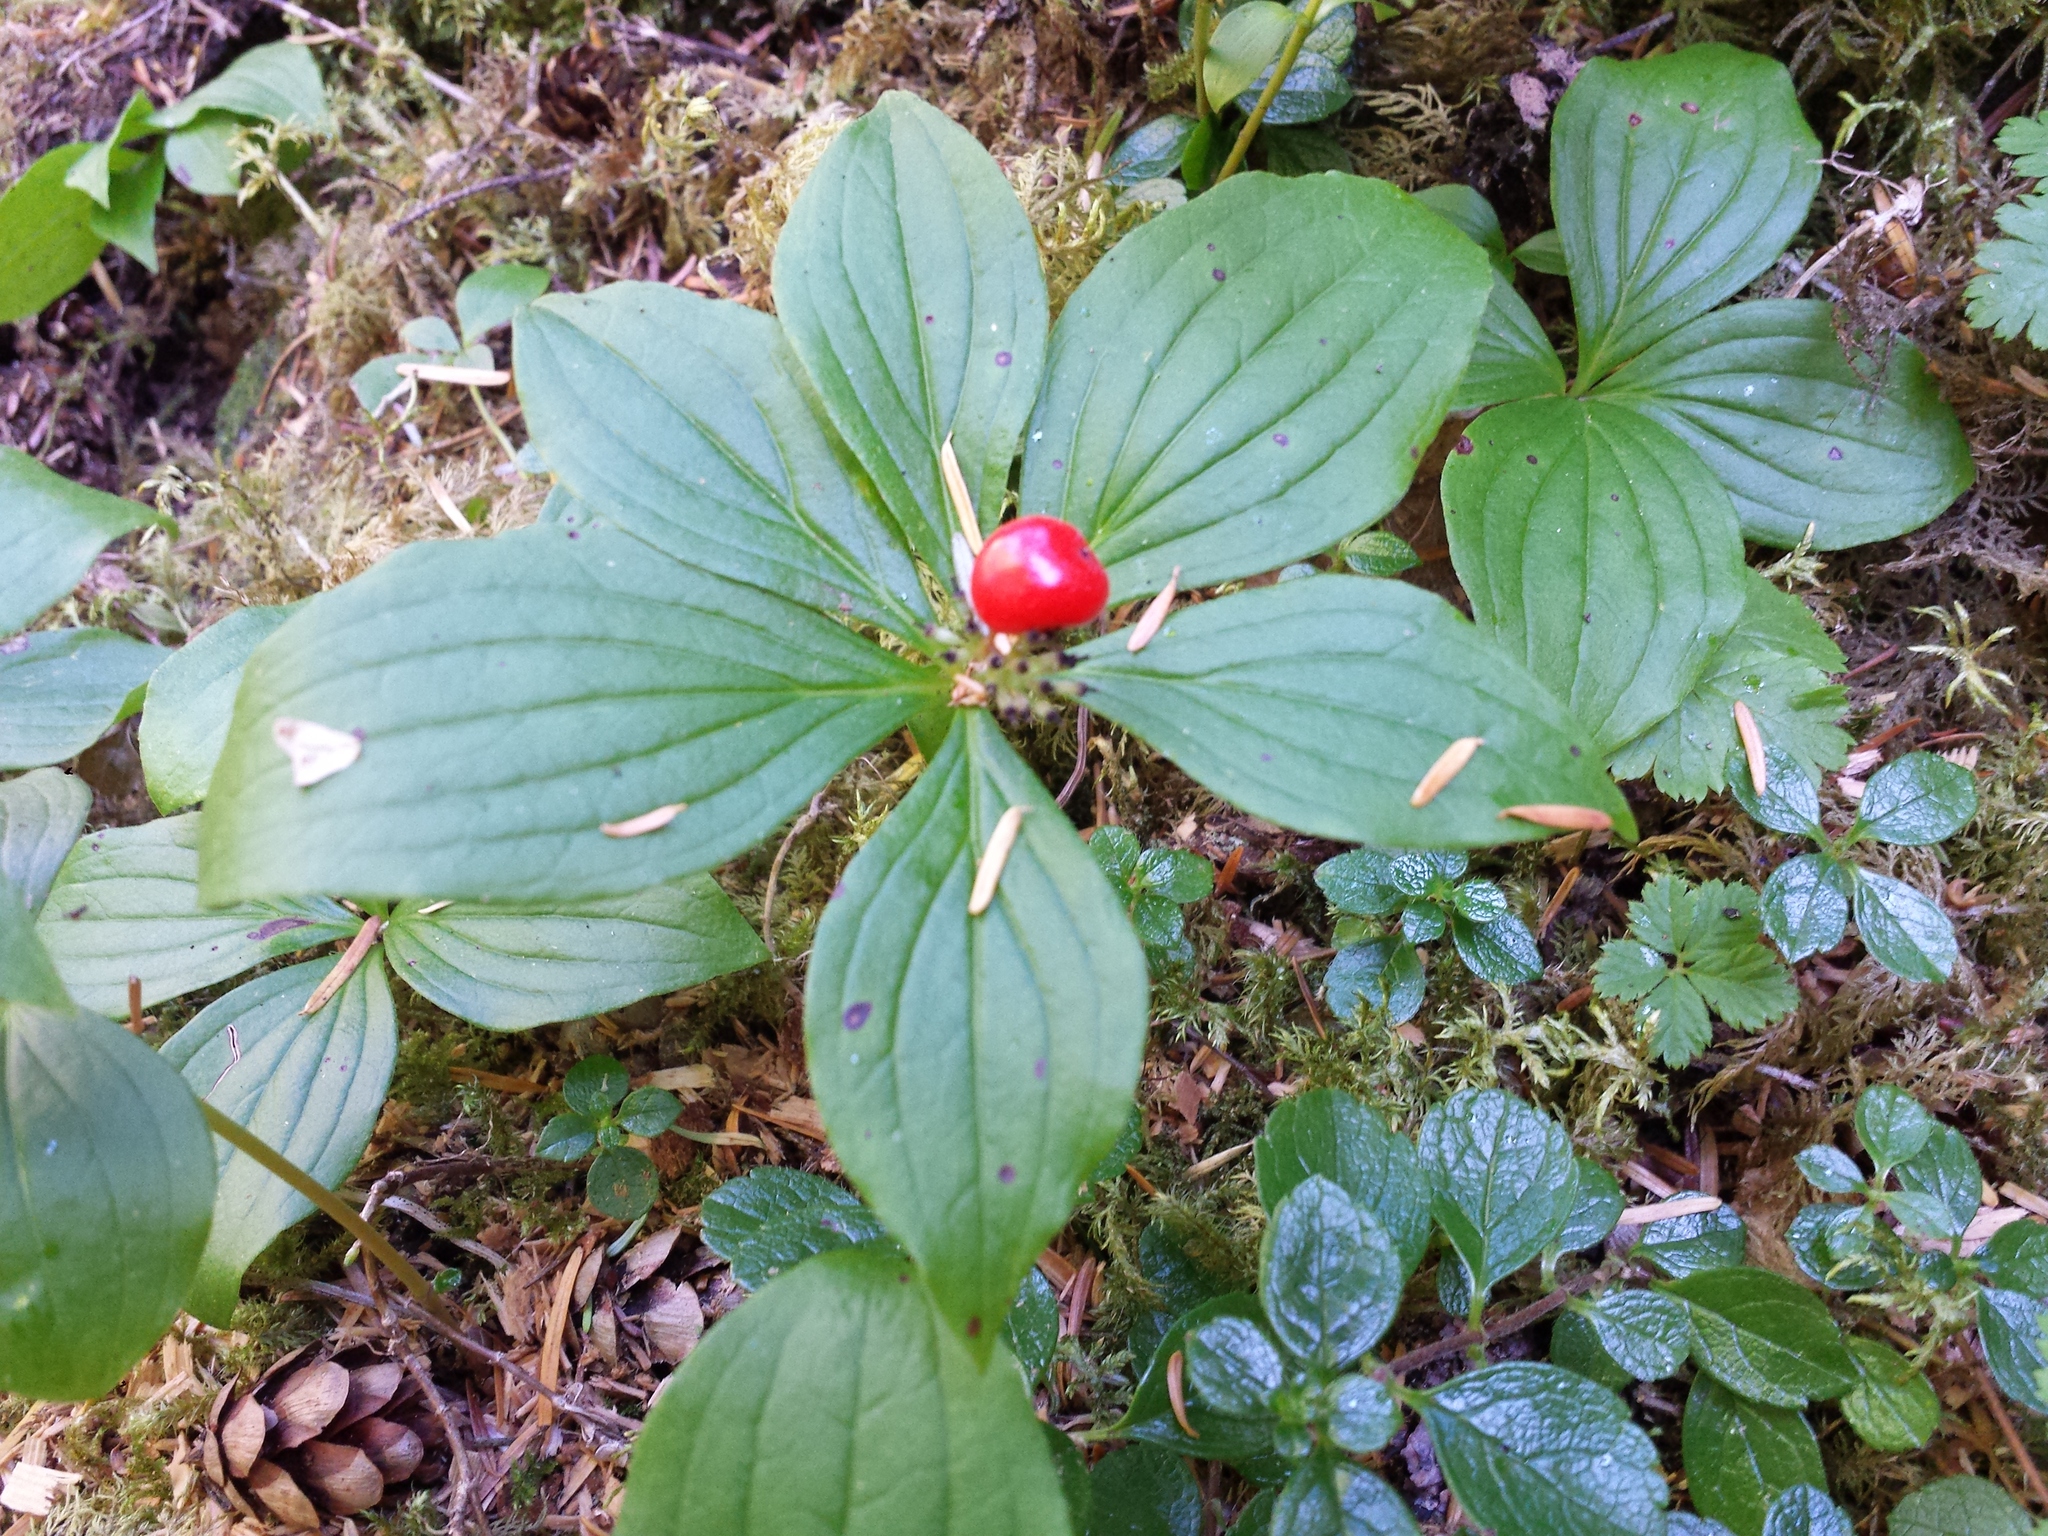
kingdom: Plantae
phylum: Tracheophyta
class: Magnoliopsida
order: Cornales
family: Cornaceae
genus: Cornus
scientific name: Cornus unalaschkensis
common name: Alaska bunchberry
